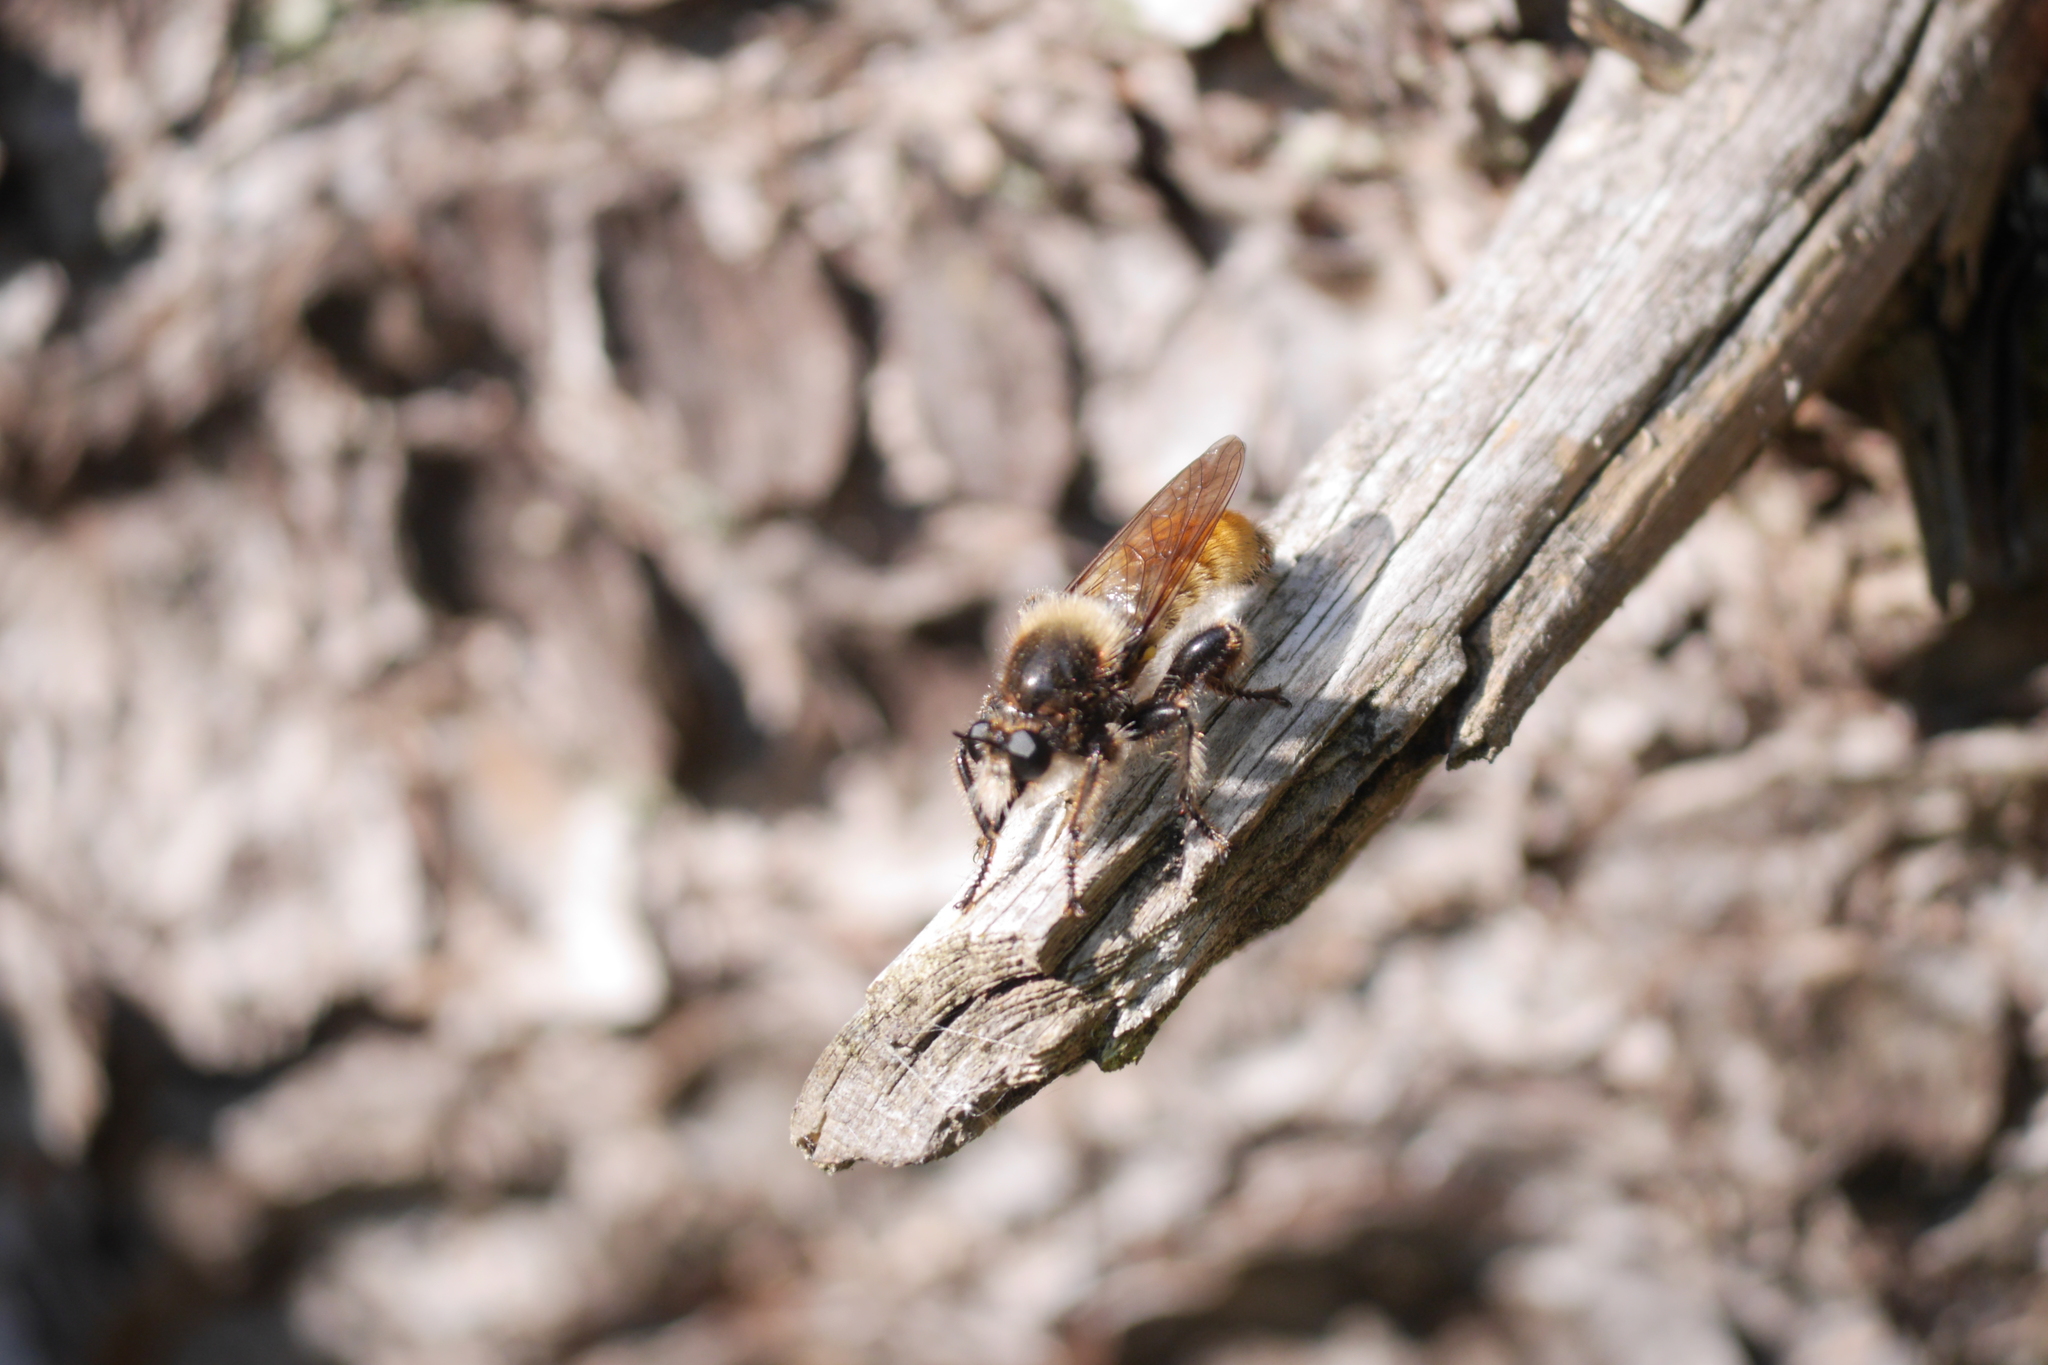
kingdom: Animalia
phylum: Arthropoda
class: Insecta
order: Diptera
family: Asilidae
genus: Laphria
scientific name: Laphria flava
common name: Bumblebee robberfly
